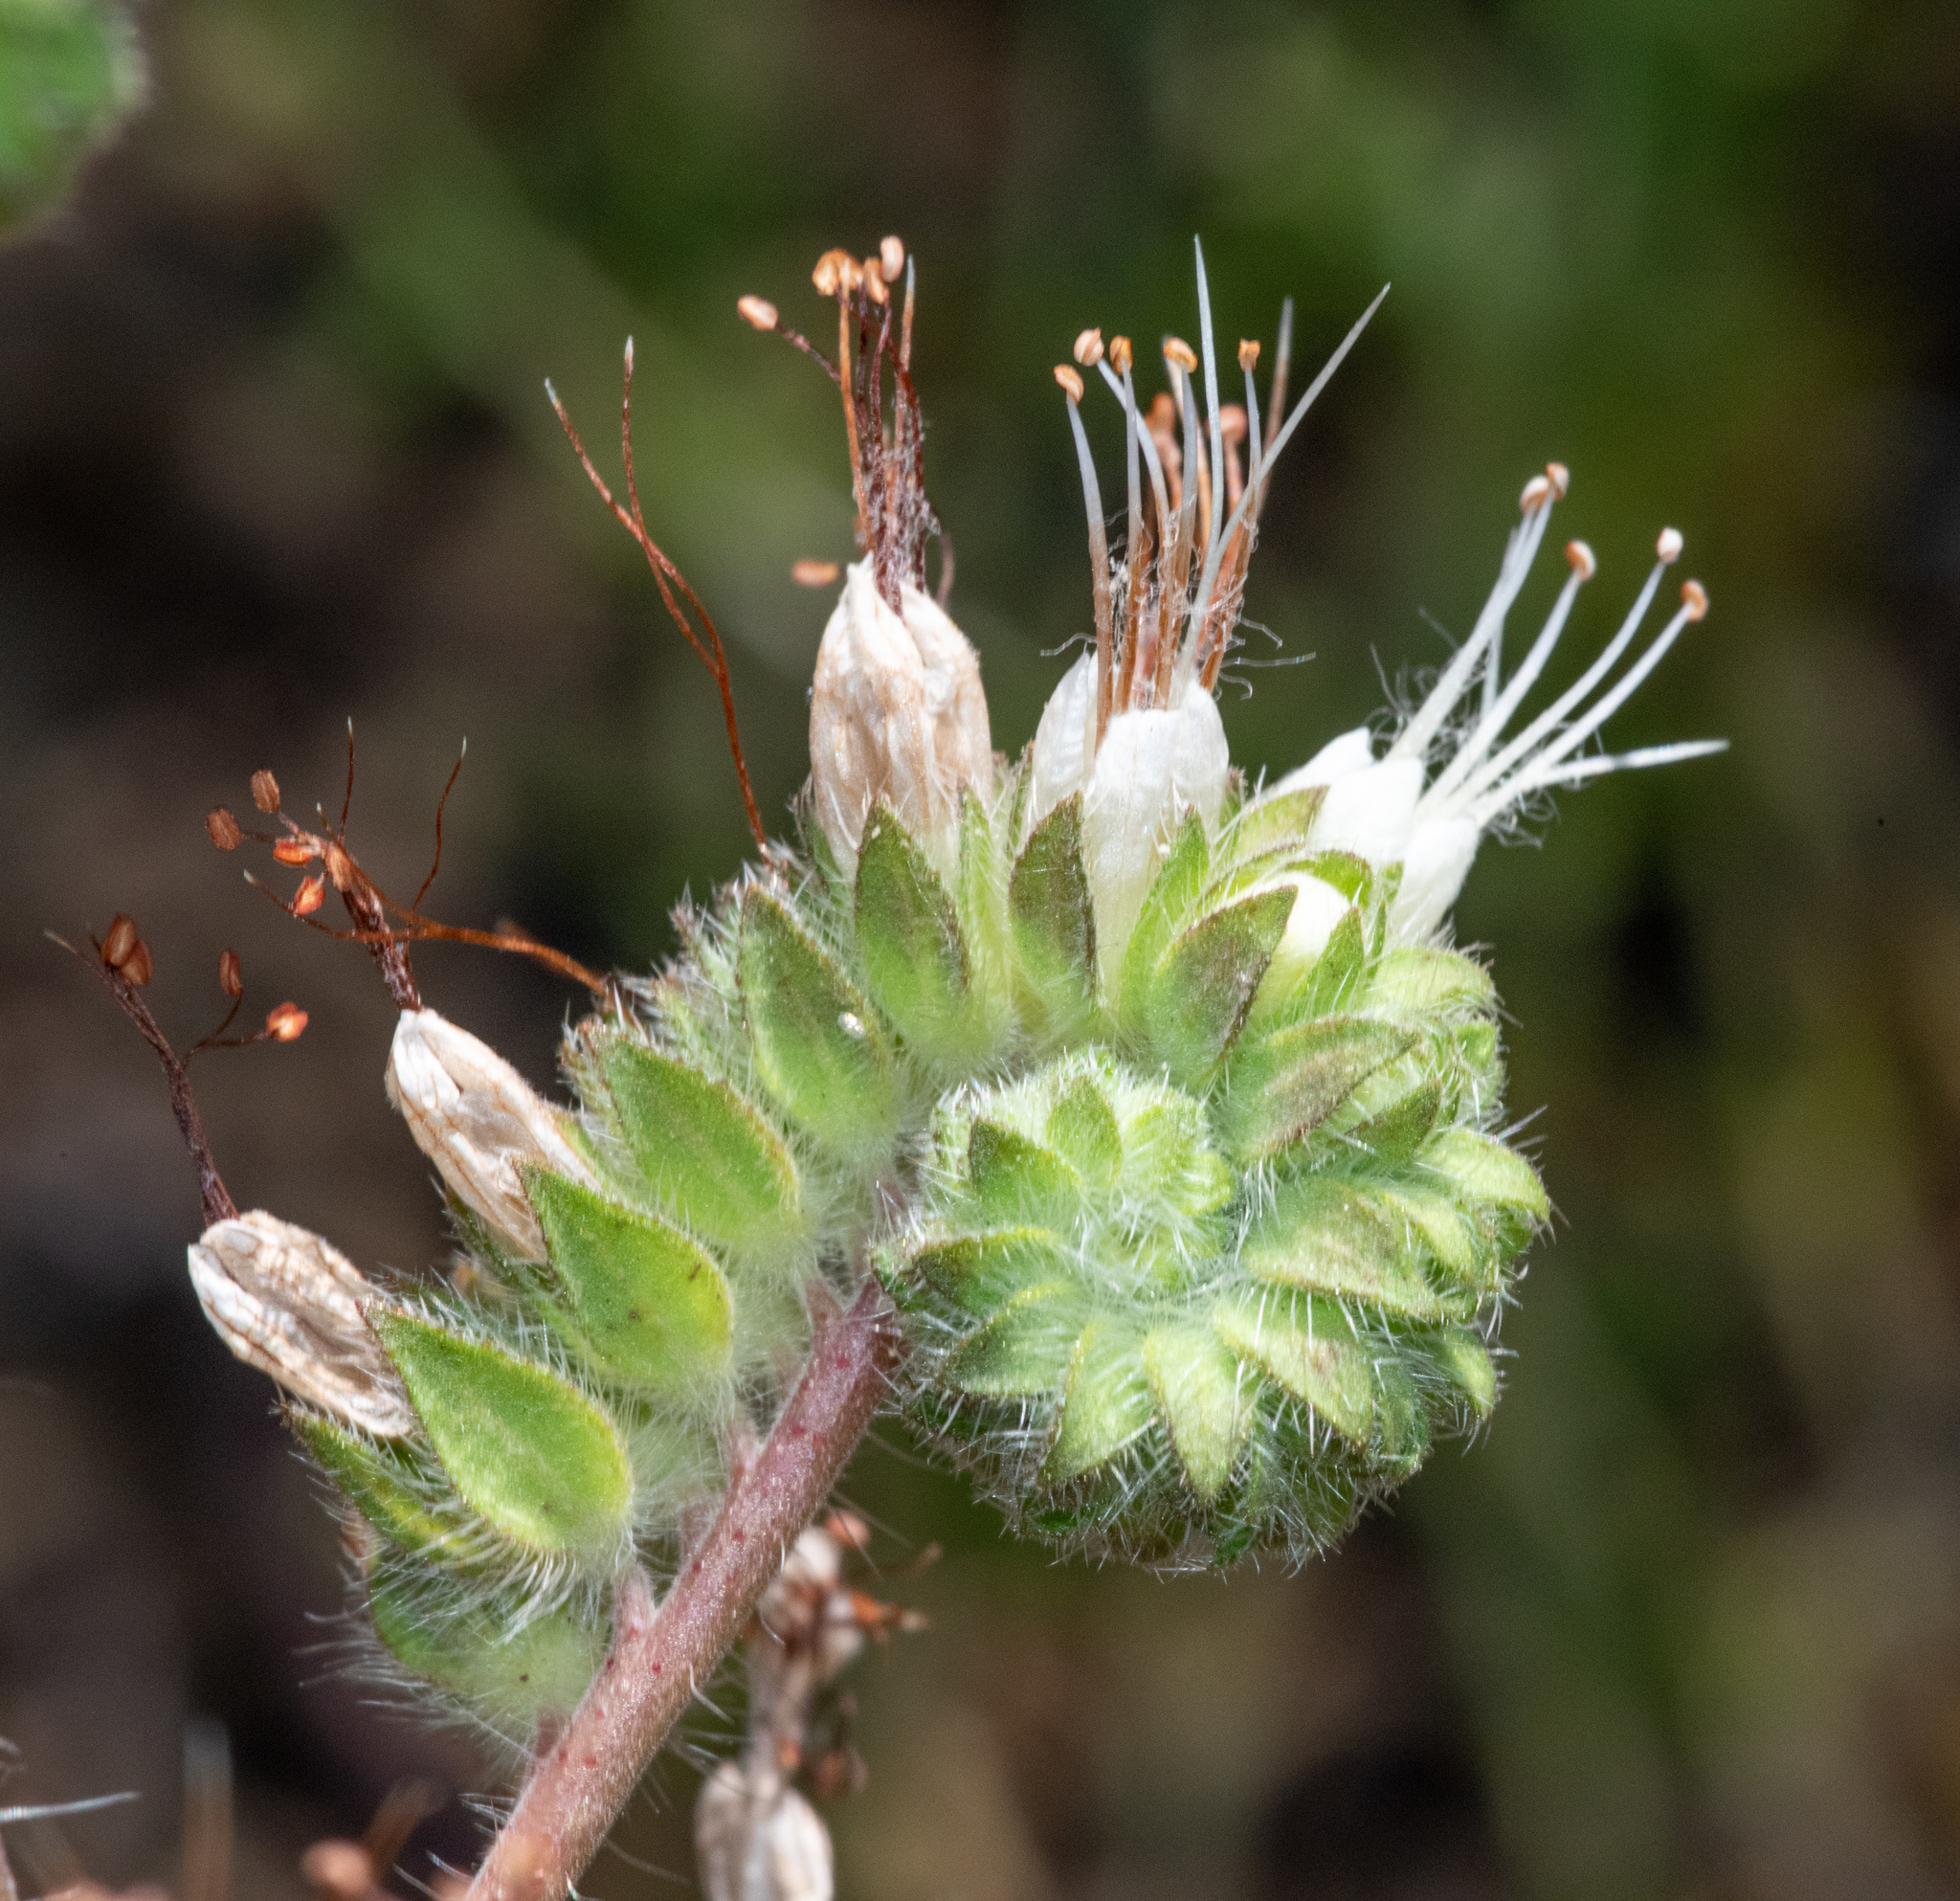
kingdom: Plantae
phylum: Tracheophyta
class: Magnoliopsida
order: Boraginales
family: Hydrophyllaceae
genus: Phacelia
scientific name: Phacelia imbricata
